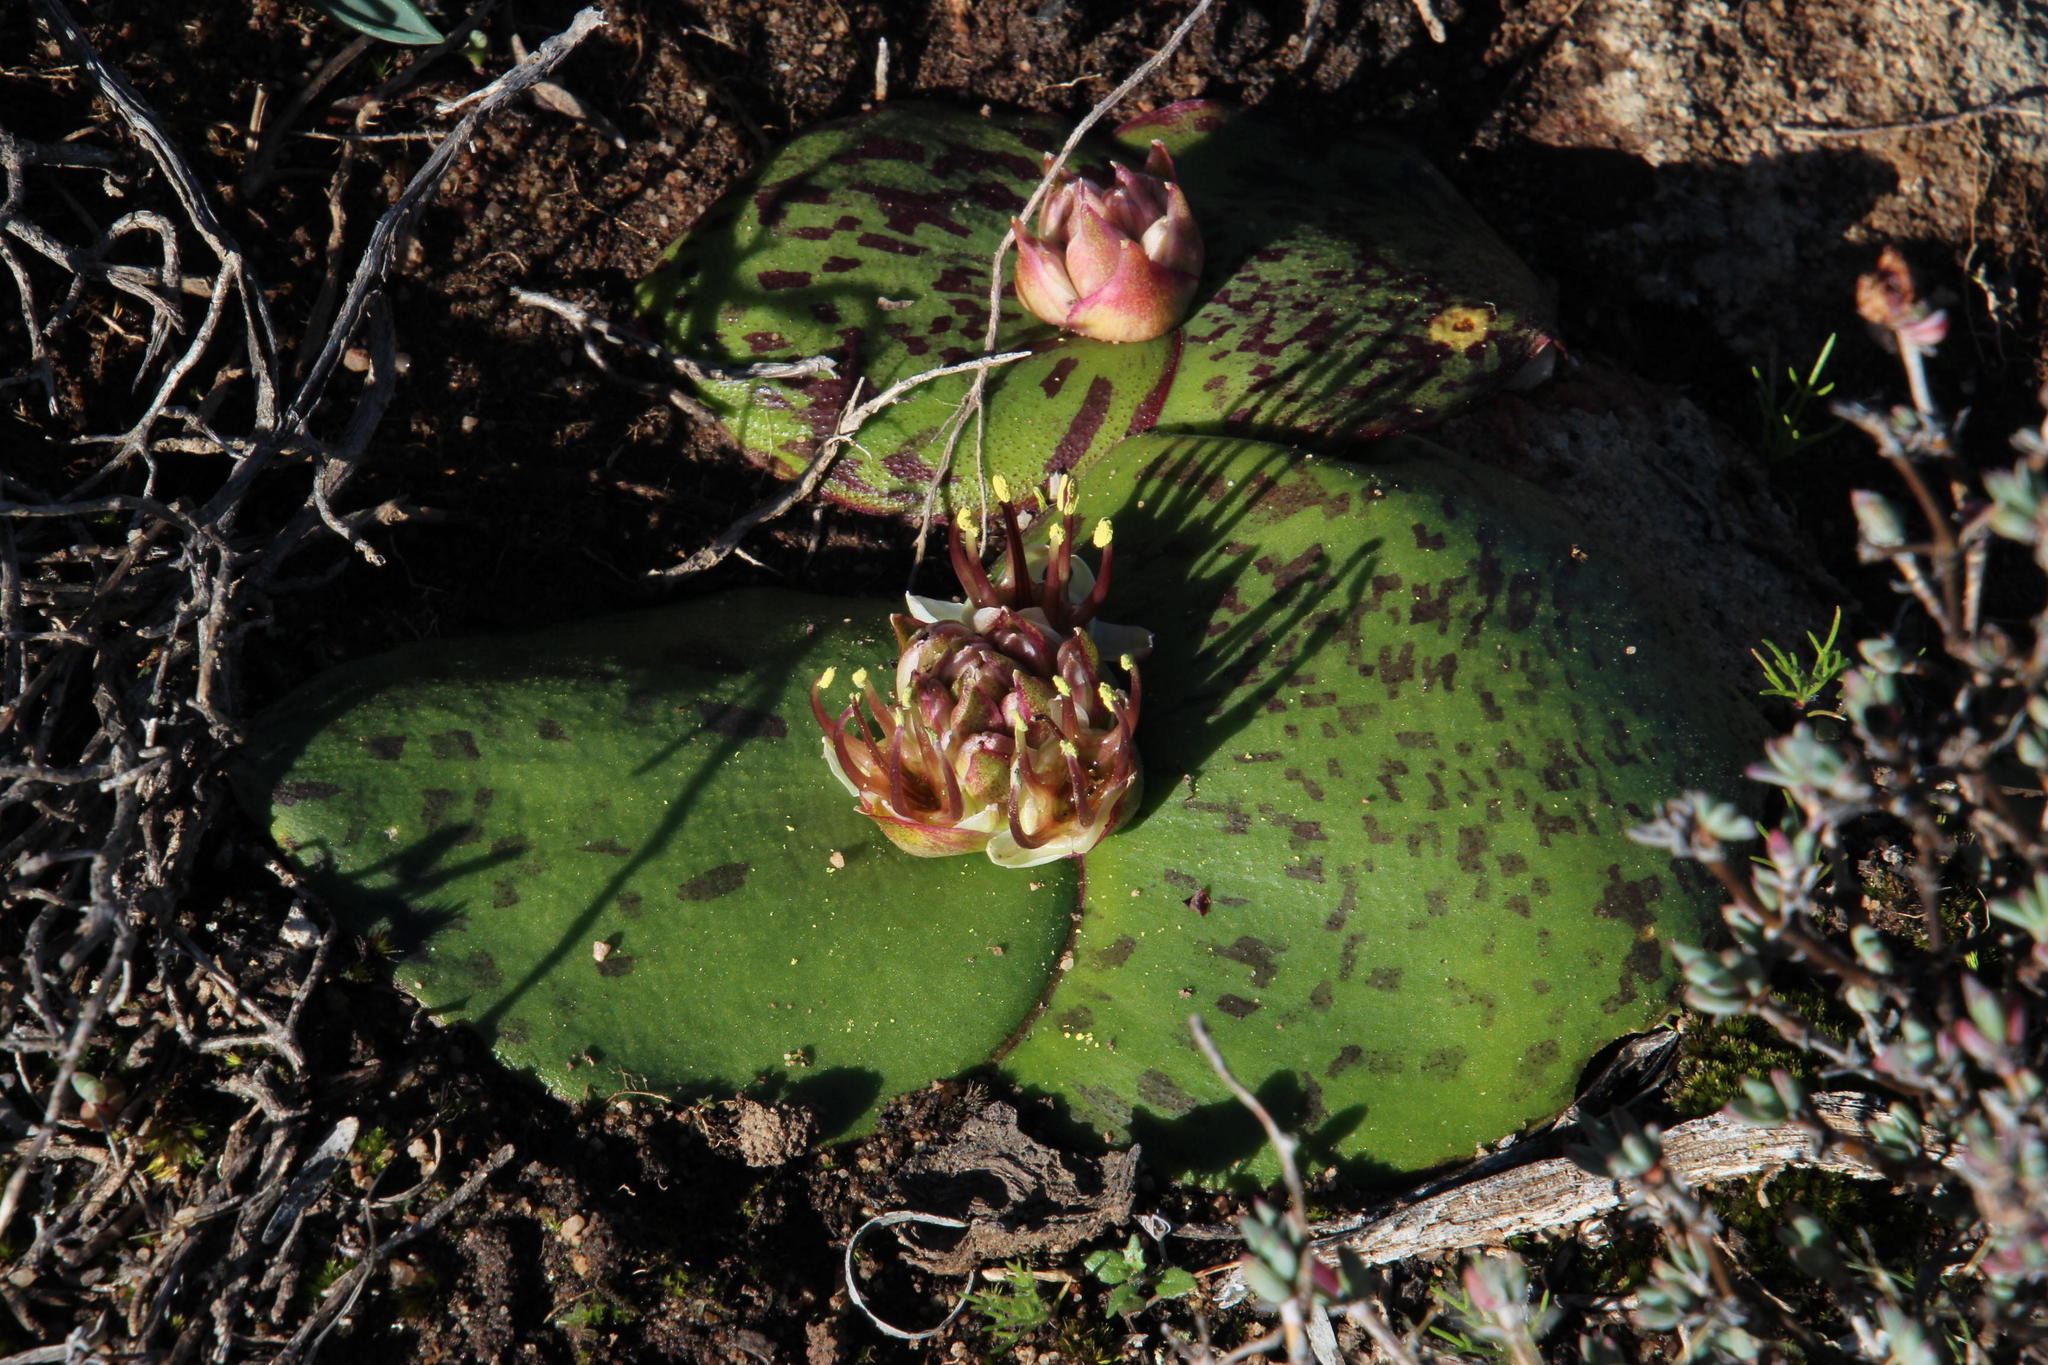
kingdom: Plantae
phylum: Tracheophyta
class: Liliopsida
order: Asparagales
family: Asparagaceae
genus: Massonia
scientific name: Massonia depressa
